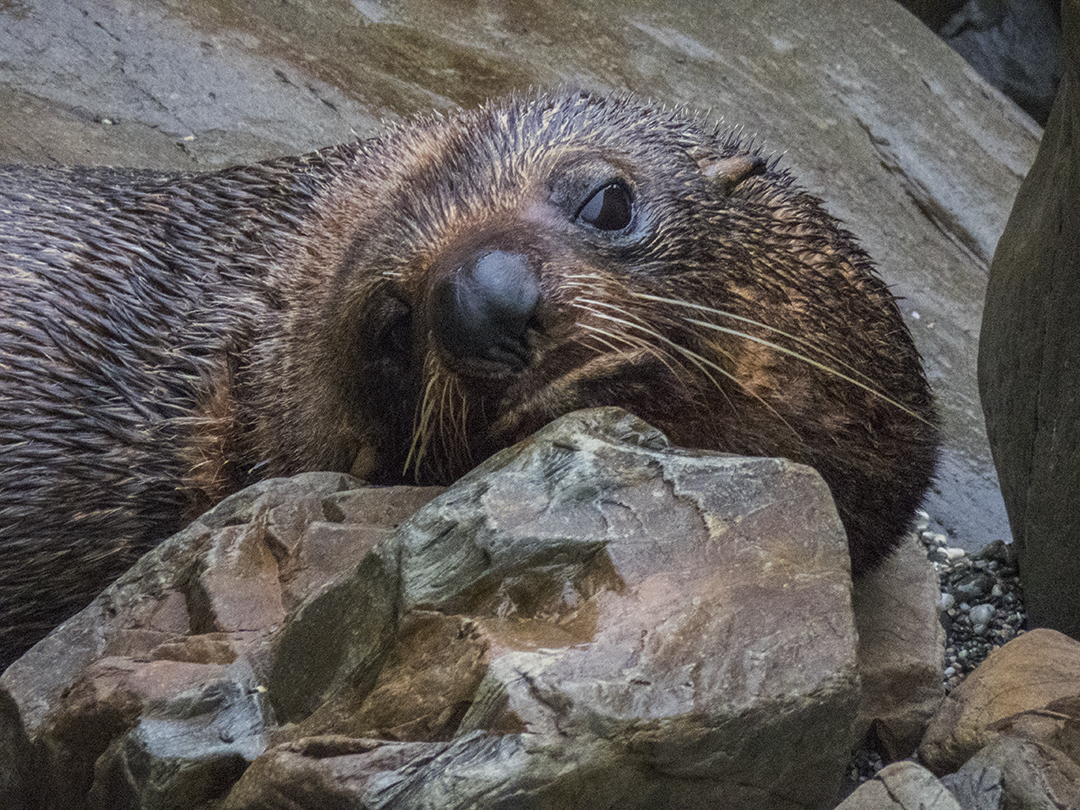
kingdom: Animalia
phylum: Chordata
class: Mammalia
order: Carnivora
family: Otariidae
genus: Arctocephalus
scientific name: Arctocephalus forsteri
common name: New zealand fur seal
